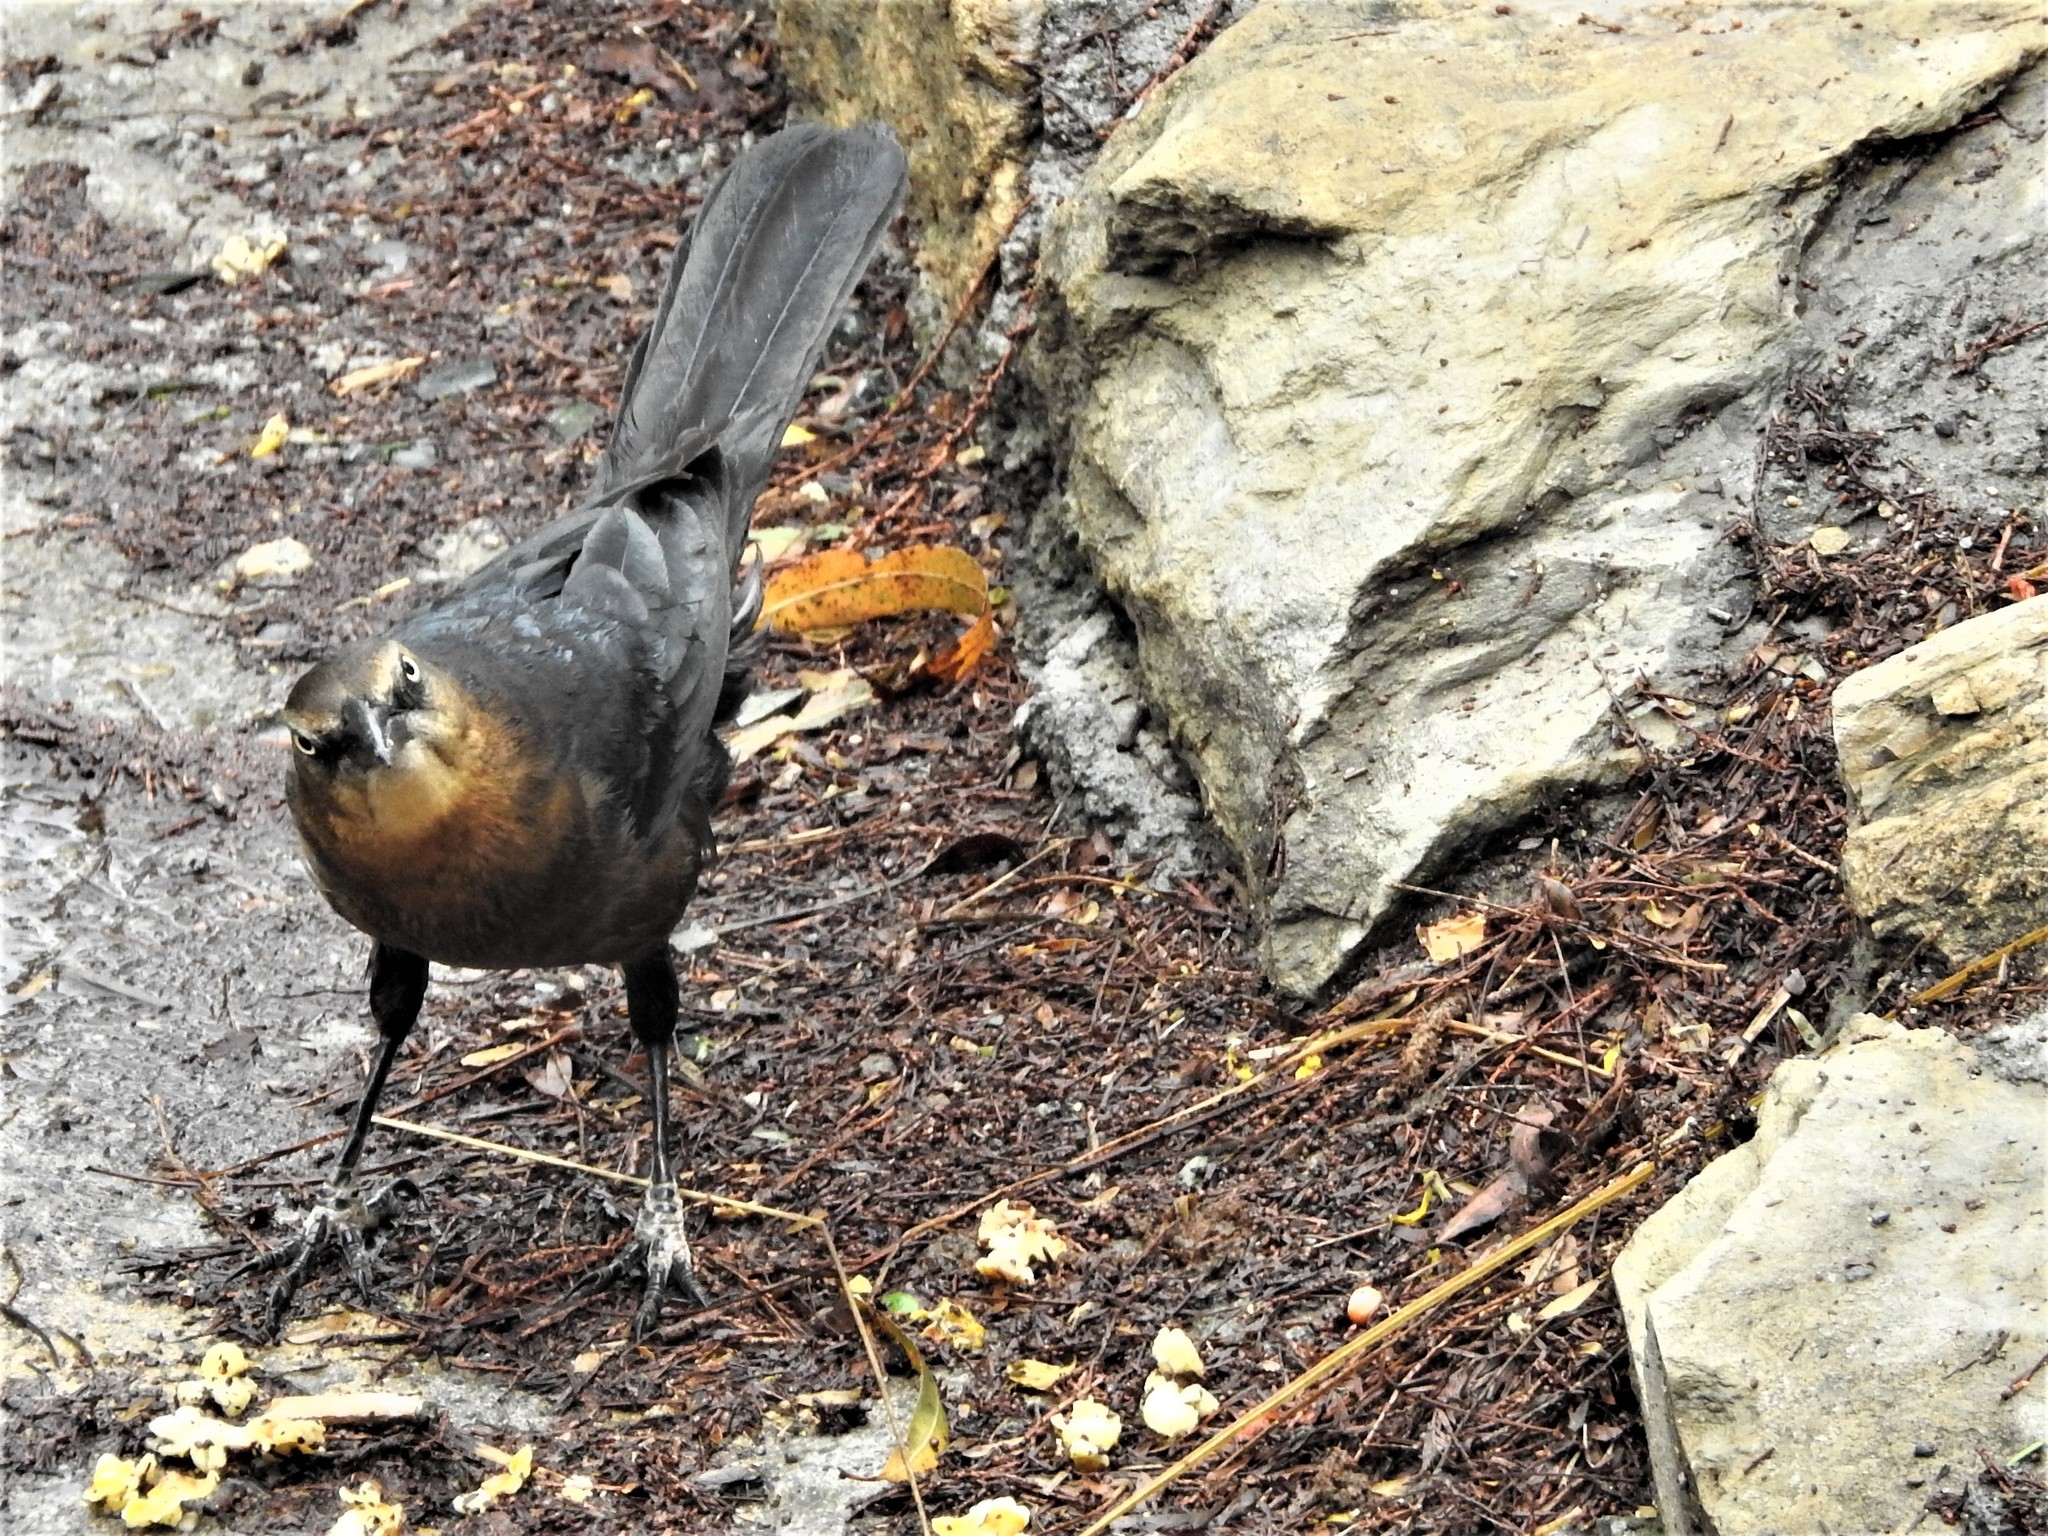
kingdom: Animalia
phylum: Chordata
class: Aves
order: Passeriformes
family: Icteridae
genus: Quiscalus
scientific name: Quiscalus mexicanus
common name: Great-tailed grackle
